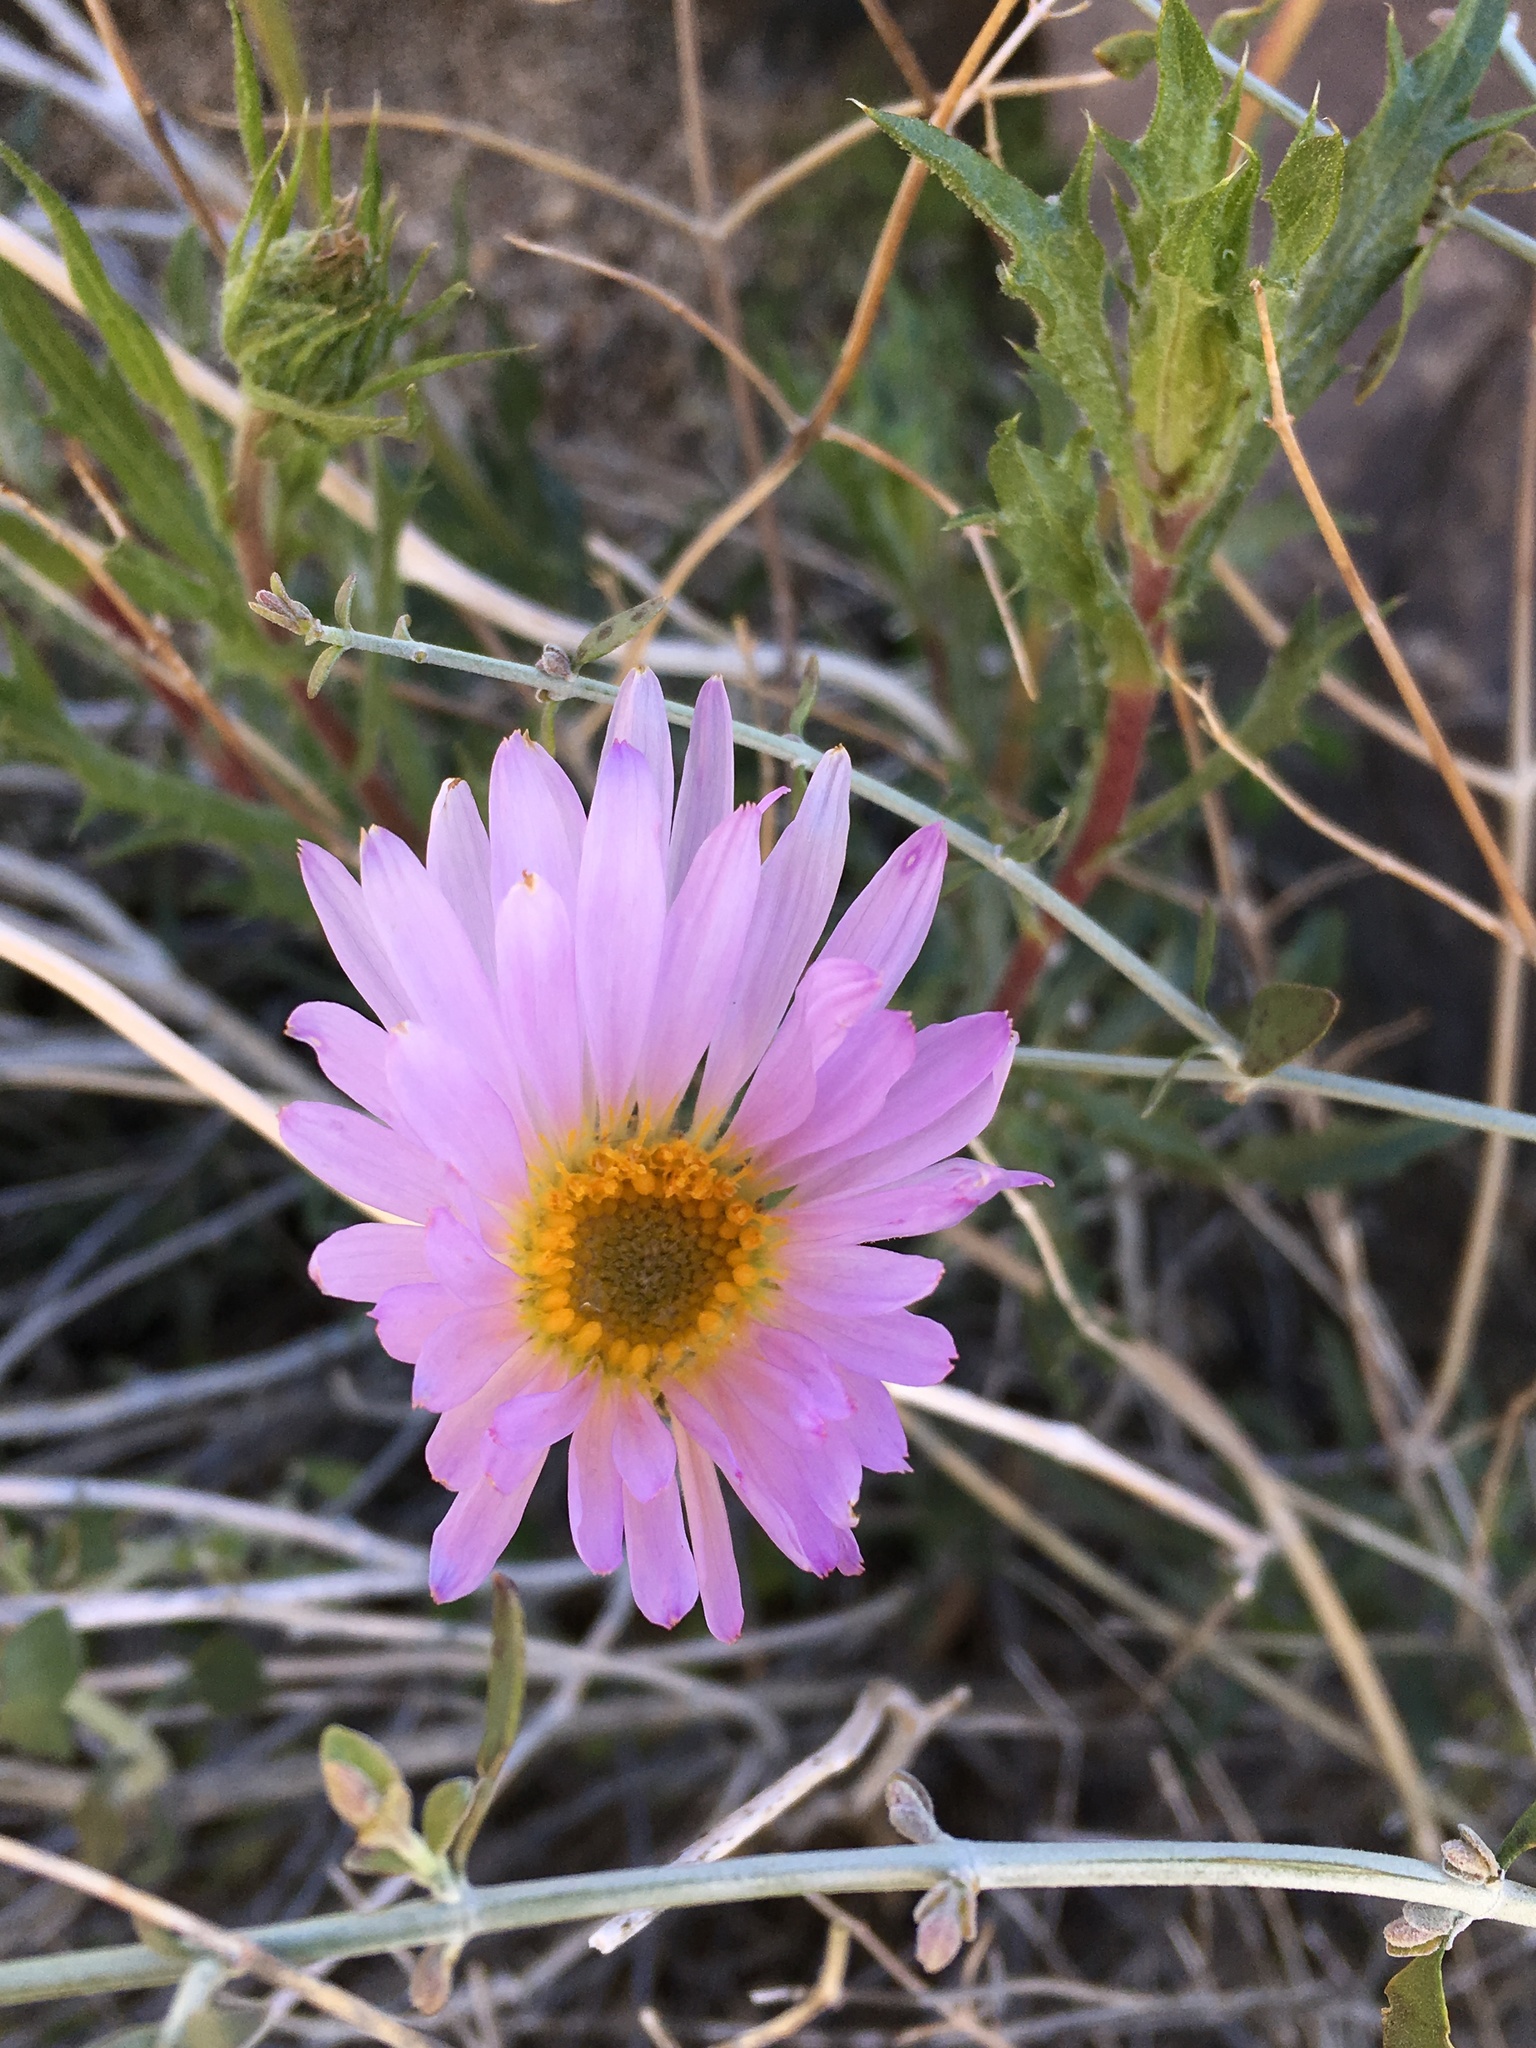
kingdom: Plantae
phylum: Tracheophyta
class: Magnoliopsida
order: Asterales
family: Asteraceae
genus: Xylorhiza
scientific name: Xylorhiza tortifolia
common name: Hurt-leaf woody-aster
